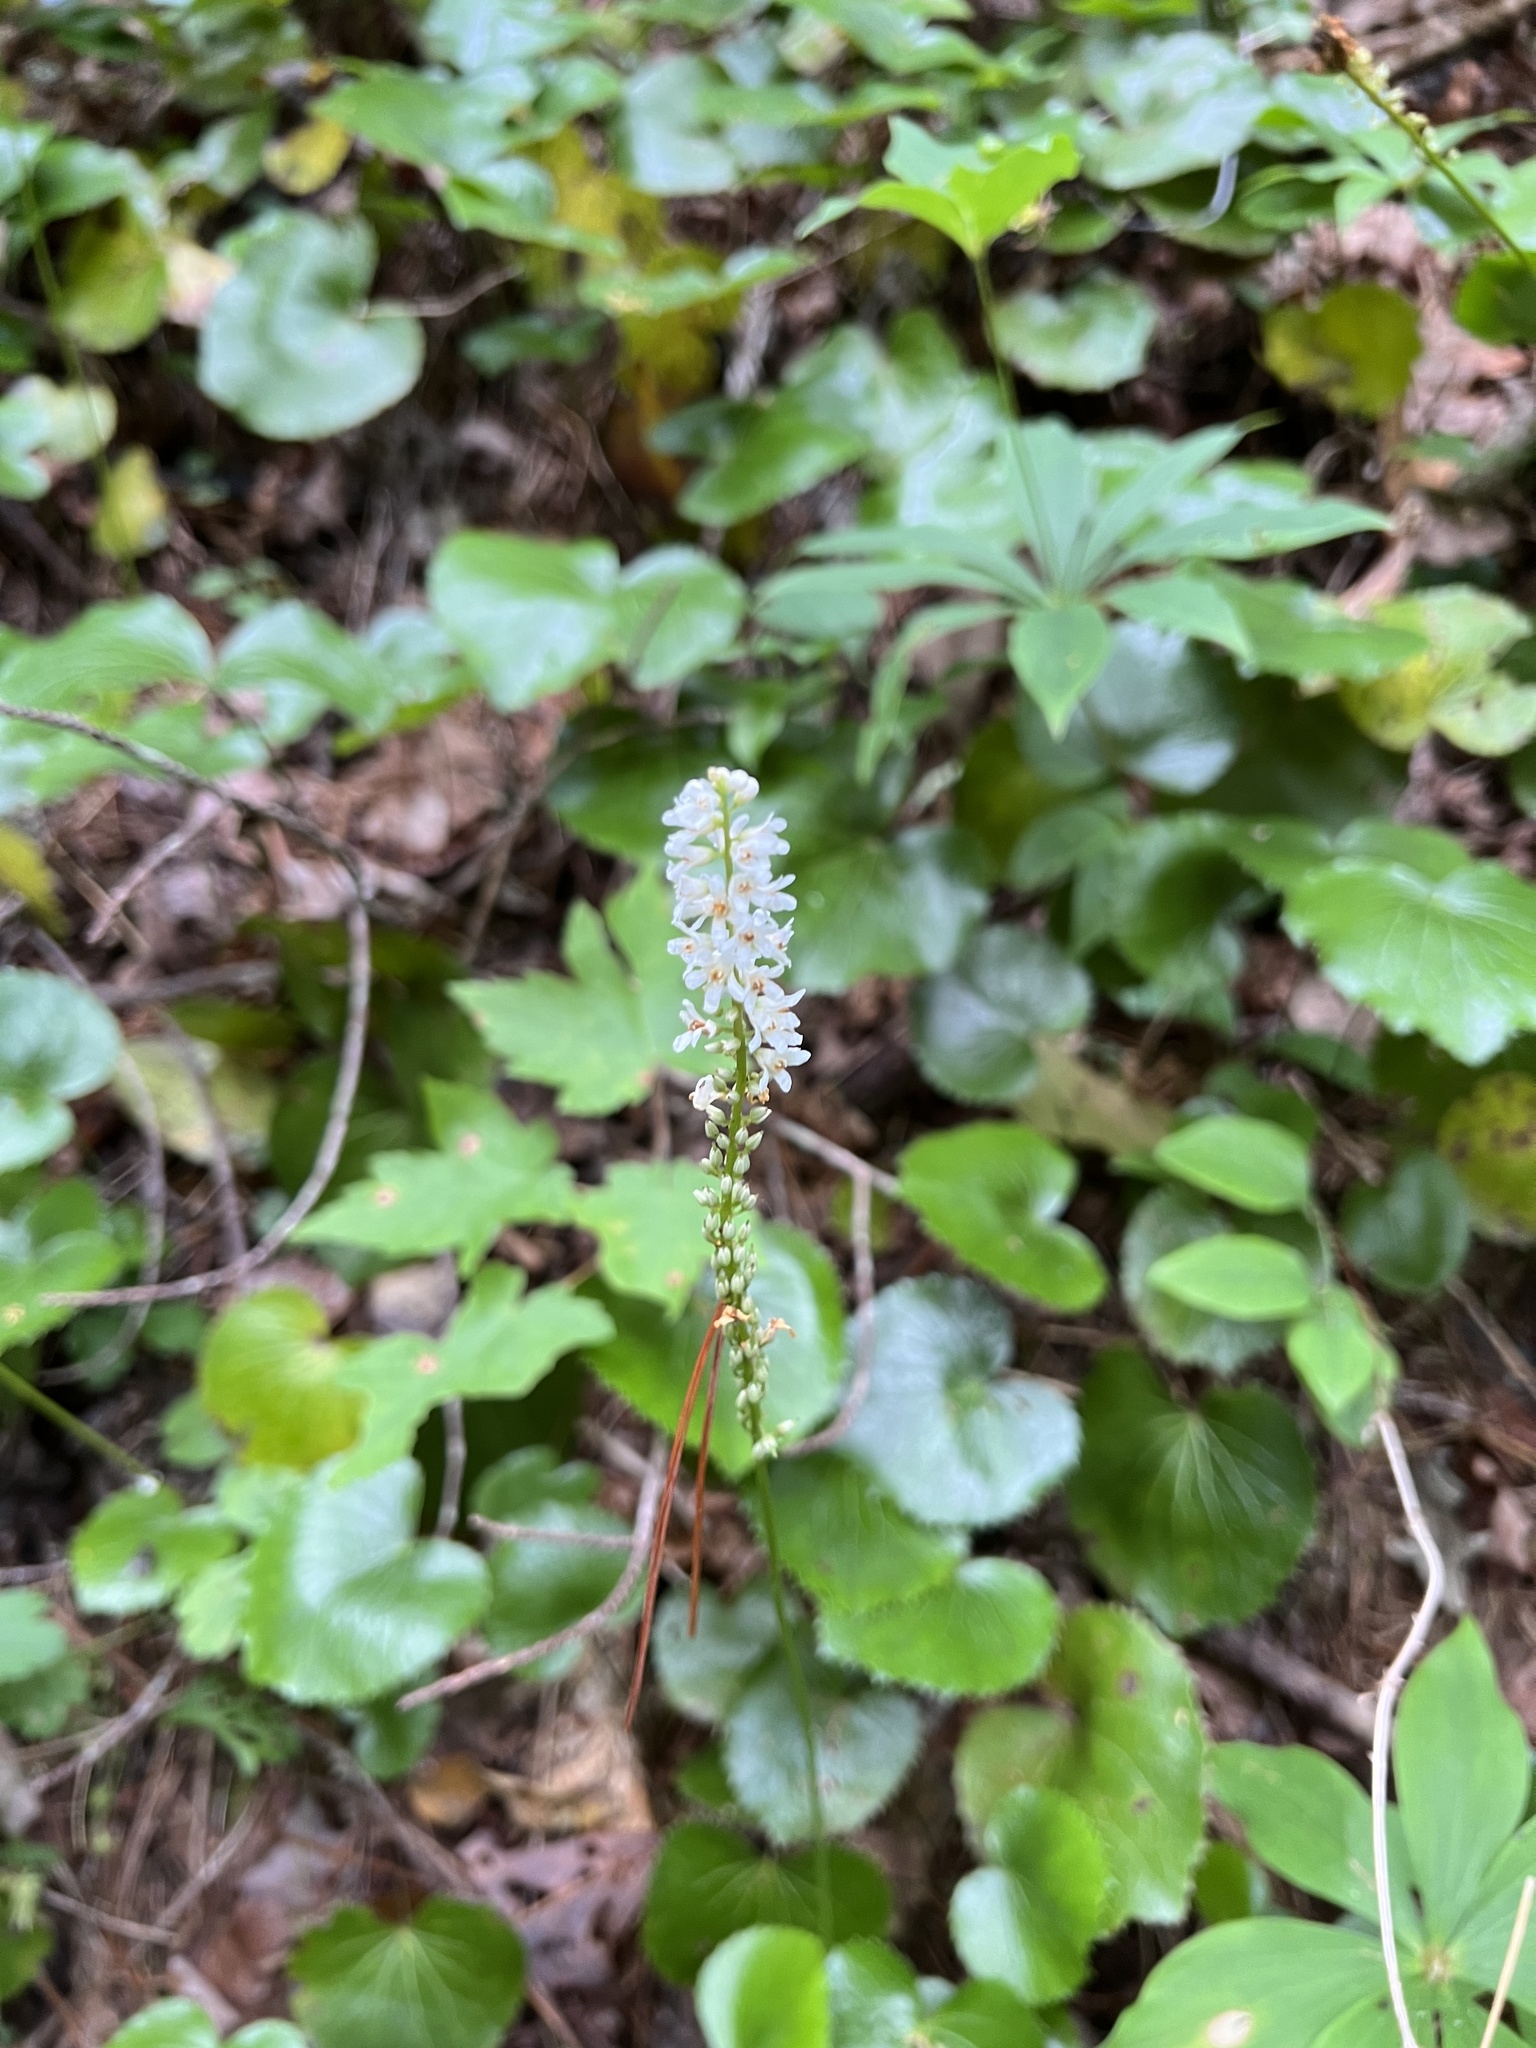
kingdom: Plantae
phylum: Tracheophyta
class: Magnoliopsida
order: Ericales
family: Diapensiaceae
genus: Galax
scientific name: Galax urceolata
